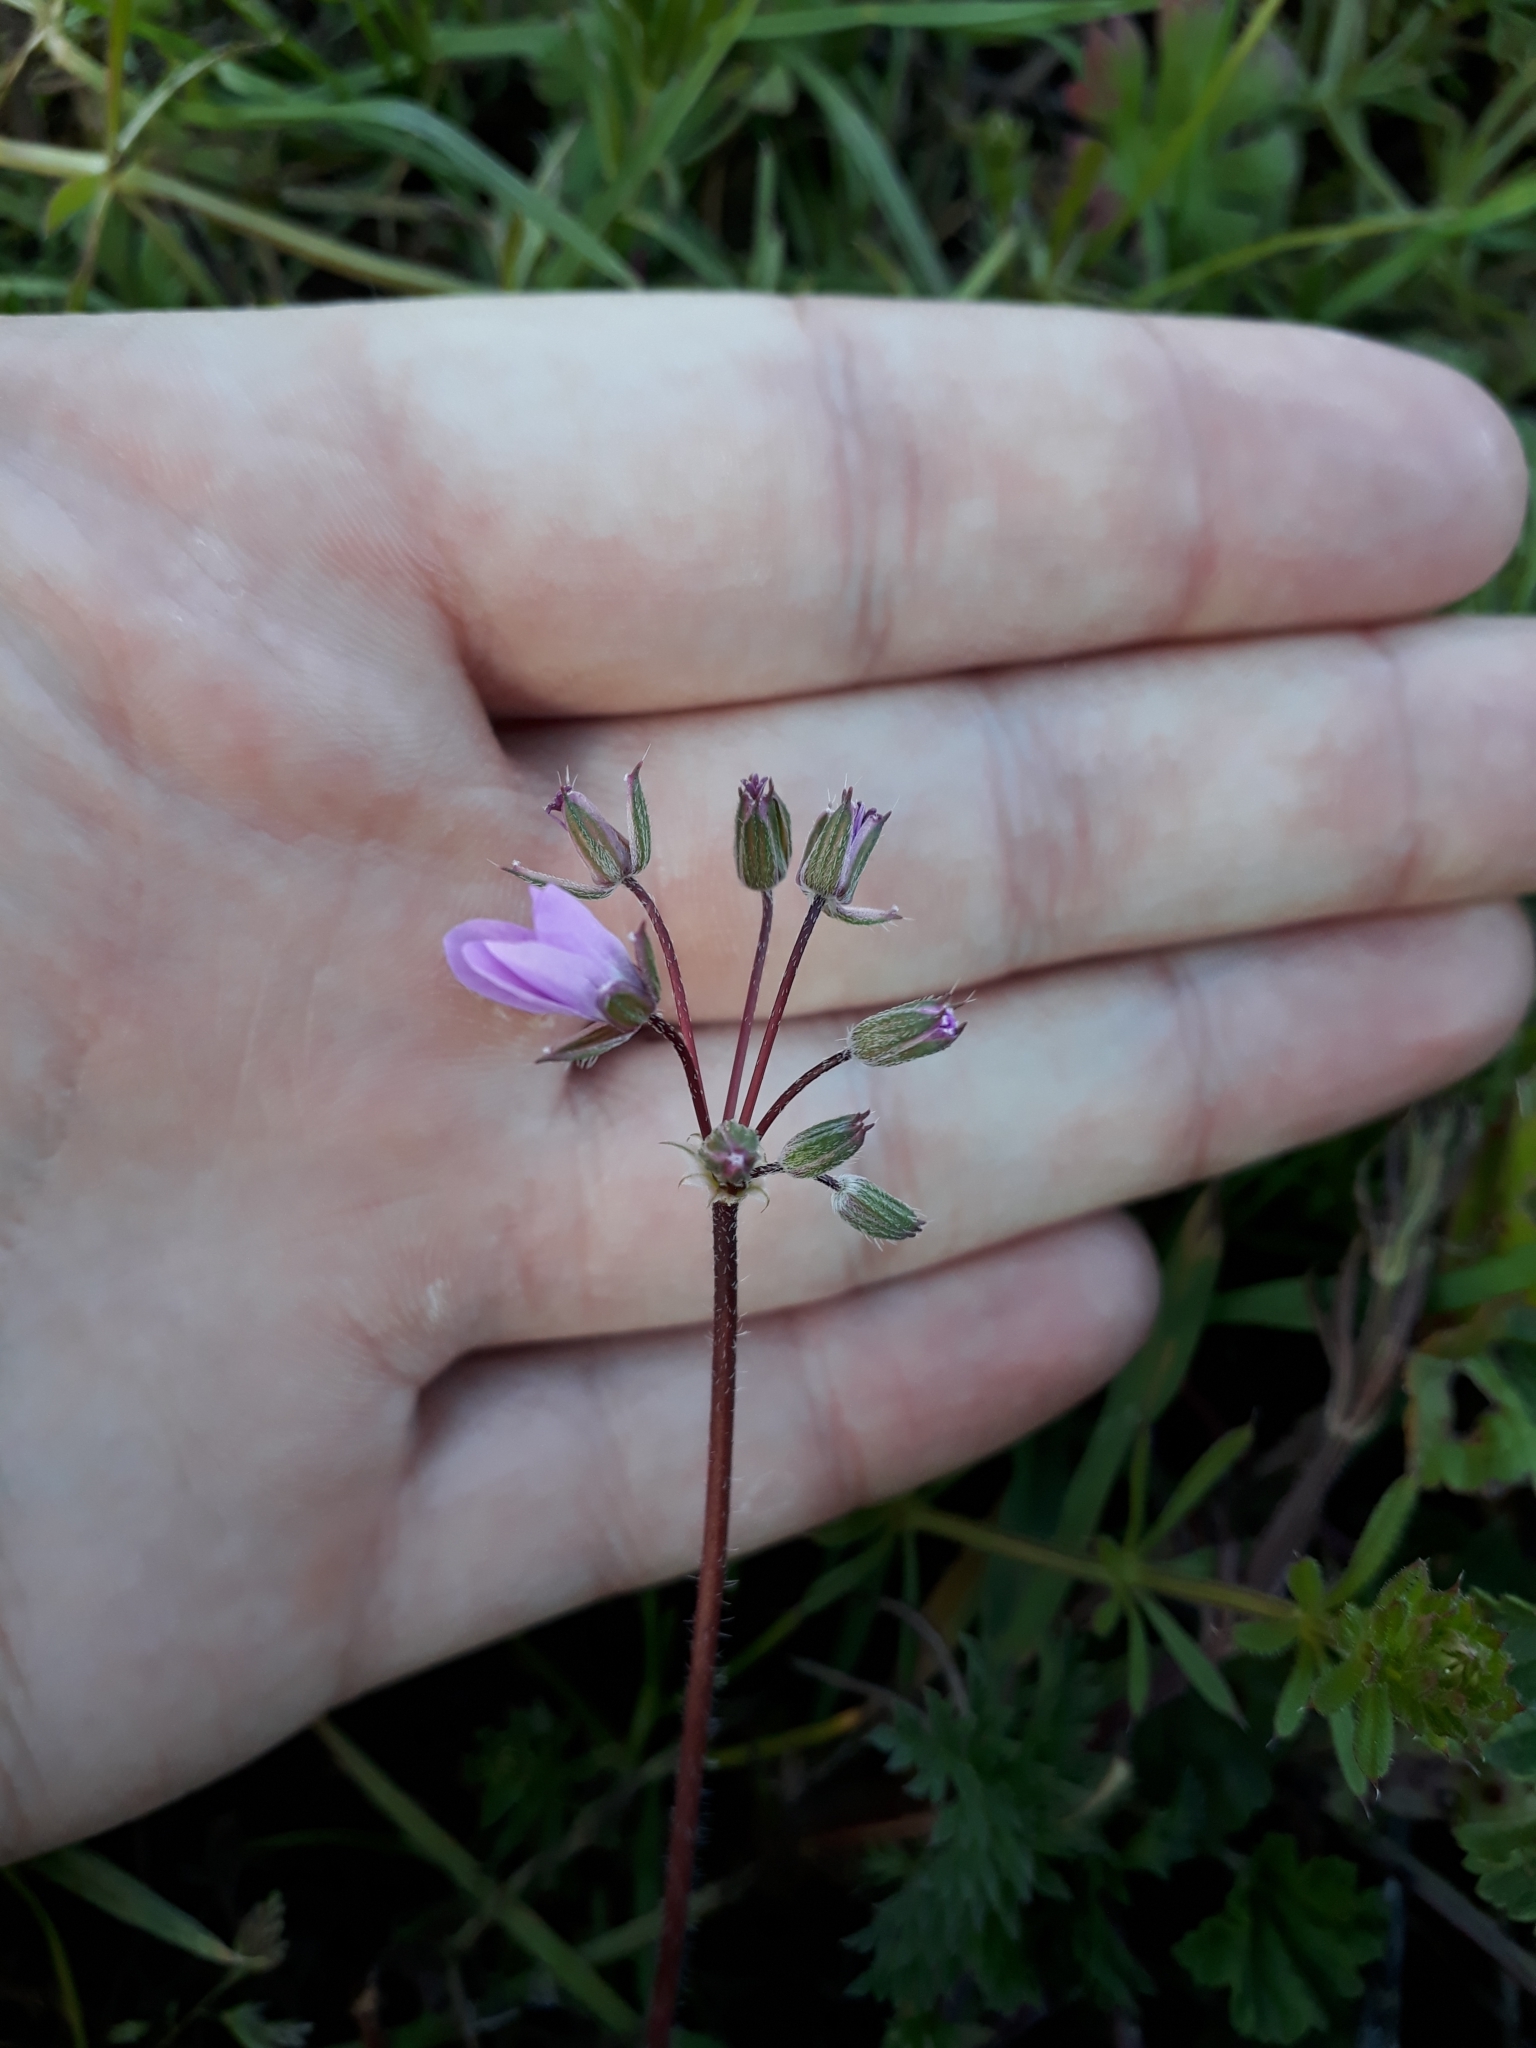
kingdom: Plantae
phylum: Tracheophyta
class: Magnoliopsida
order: Geraniales
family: Geraniaceae
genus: Erodium
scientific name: Erodium cicutarium
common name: Common stork's-bill
